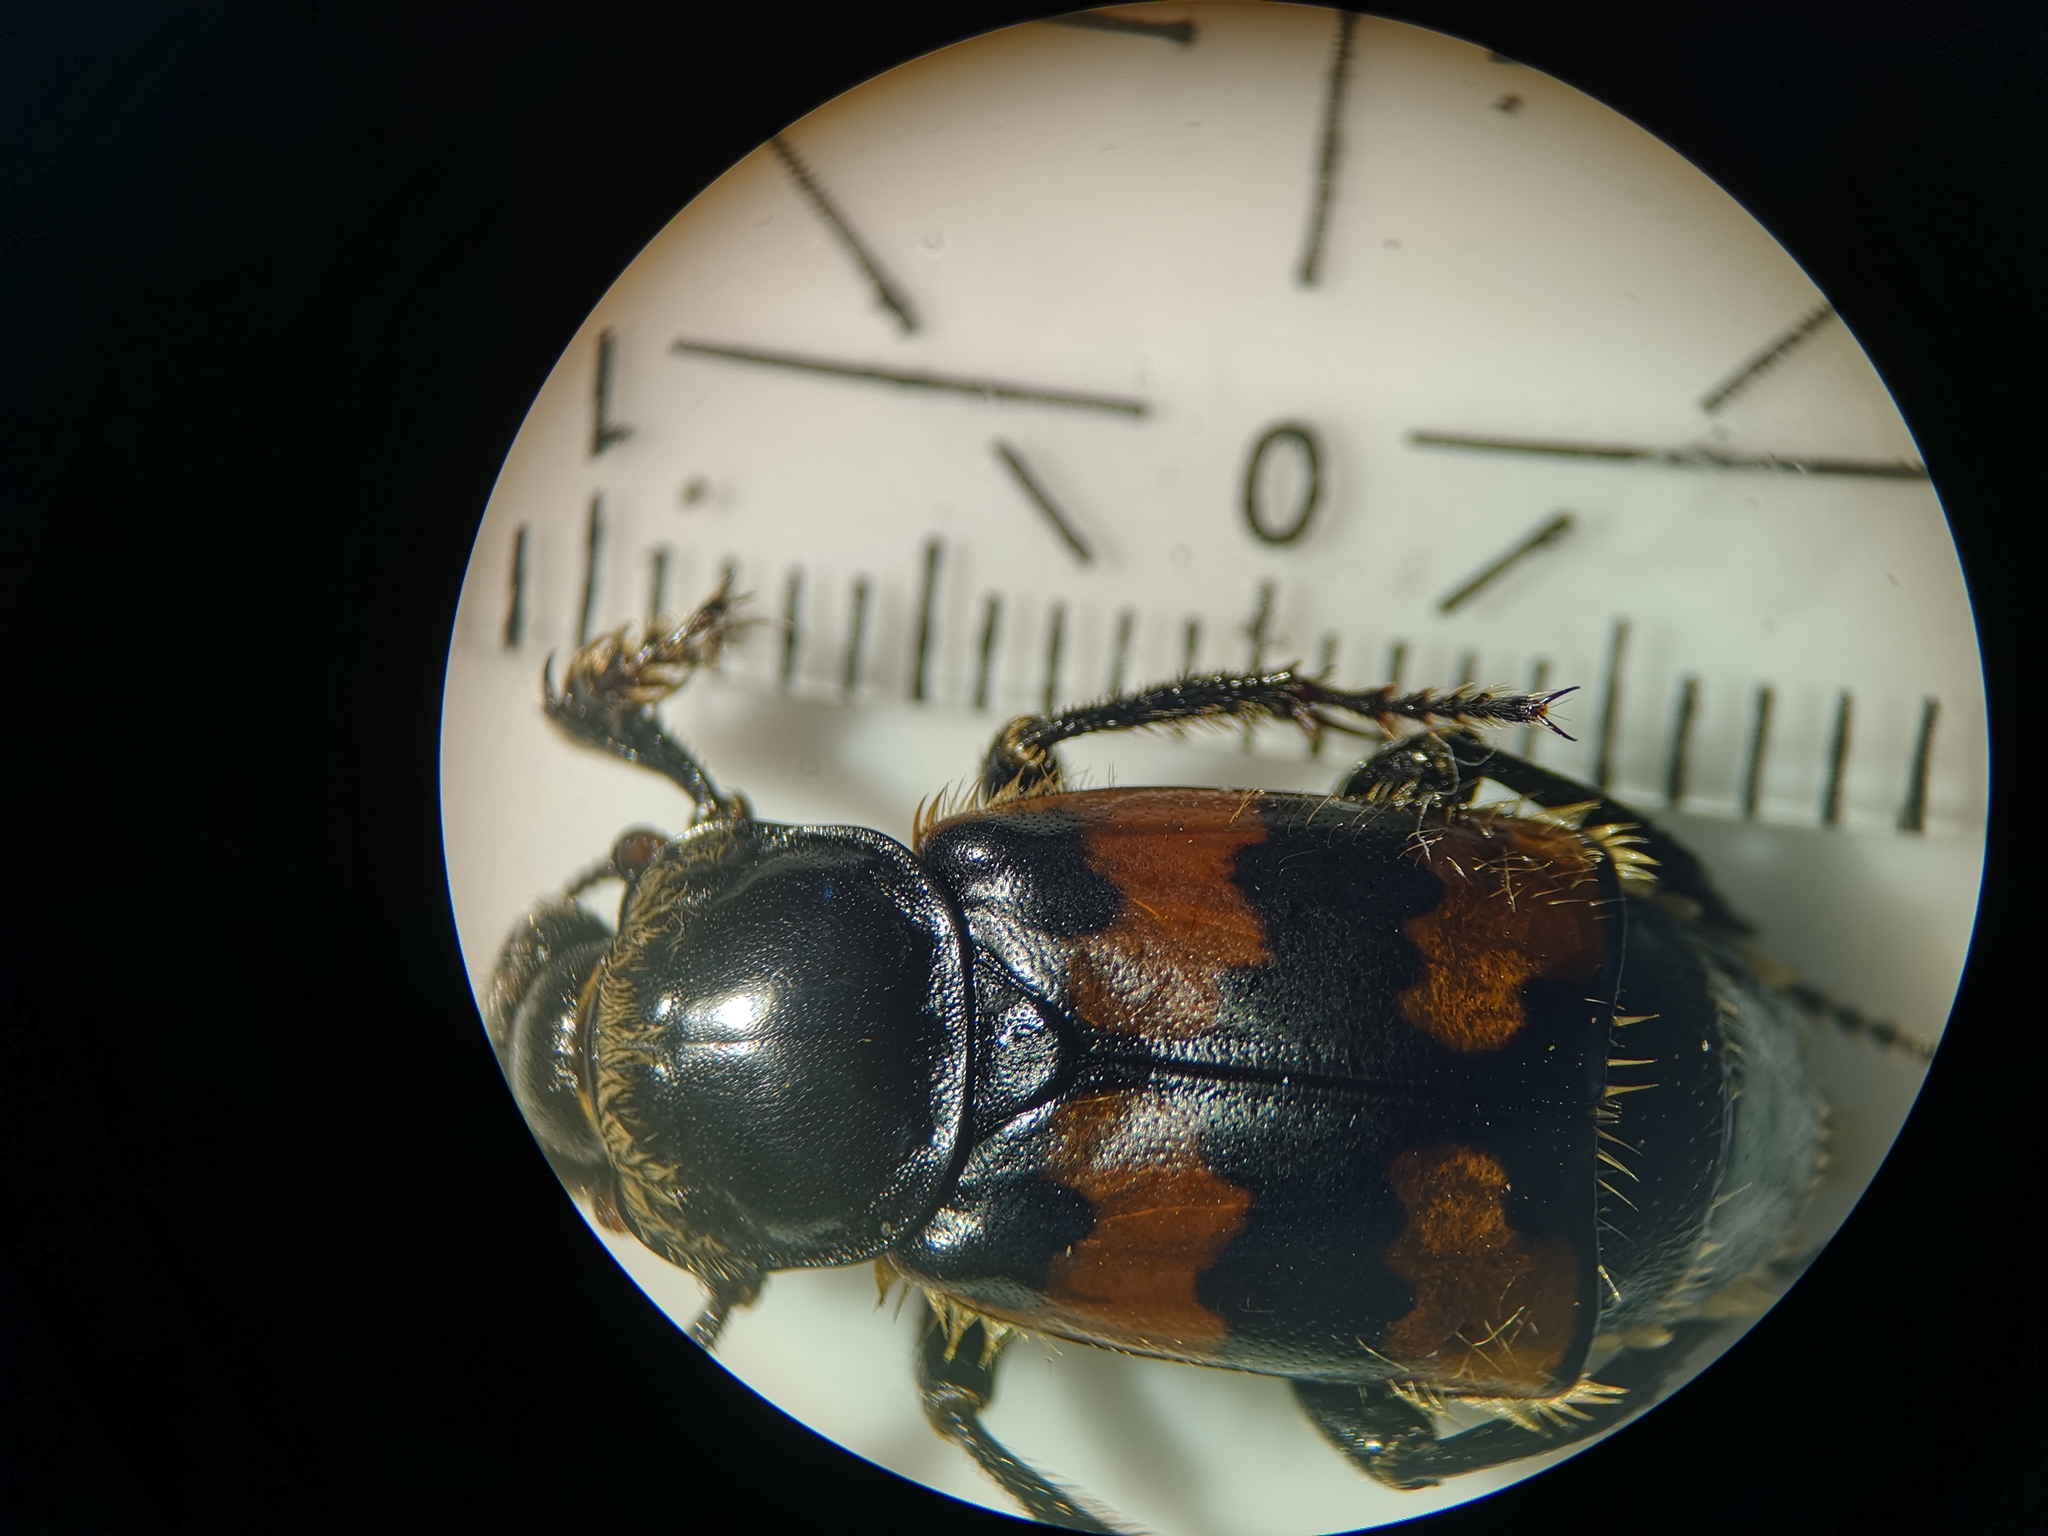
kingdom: Animalia
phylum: Arthropoda
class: Insecta
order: Coleoptera
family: Staphylinidae
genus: Nicrophorus
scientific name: Nicrophorus vespillo
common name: Common burying beetle
